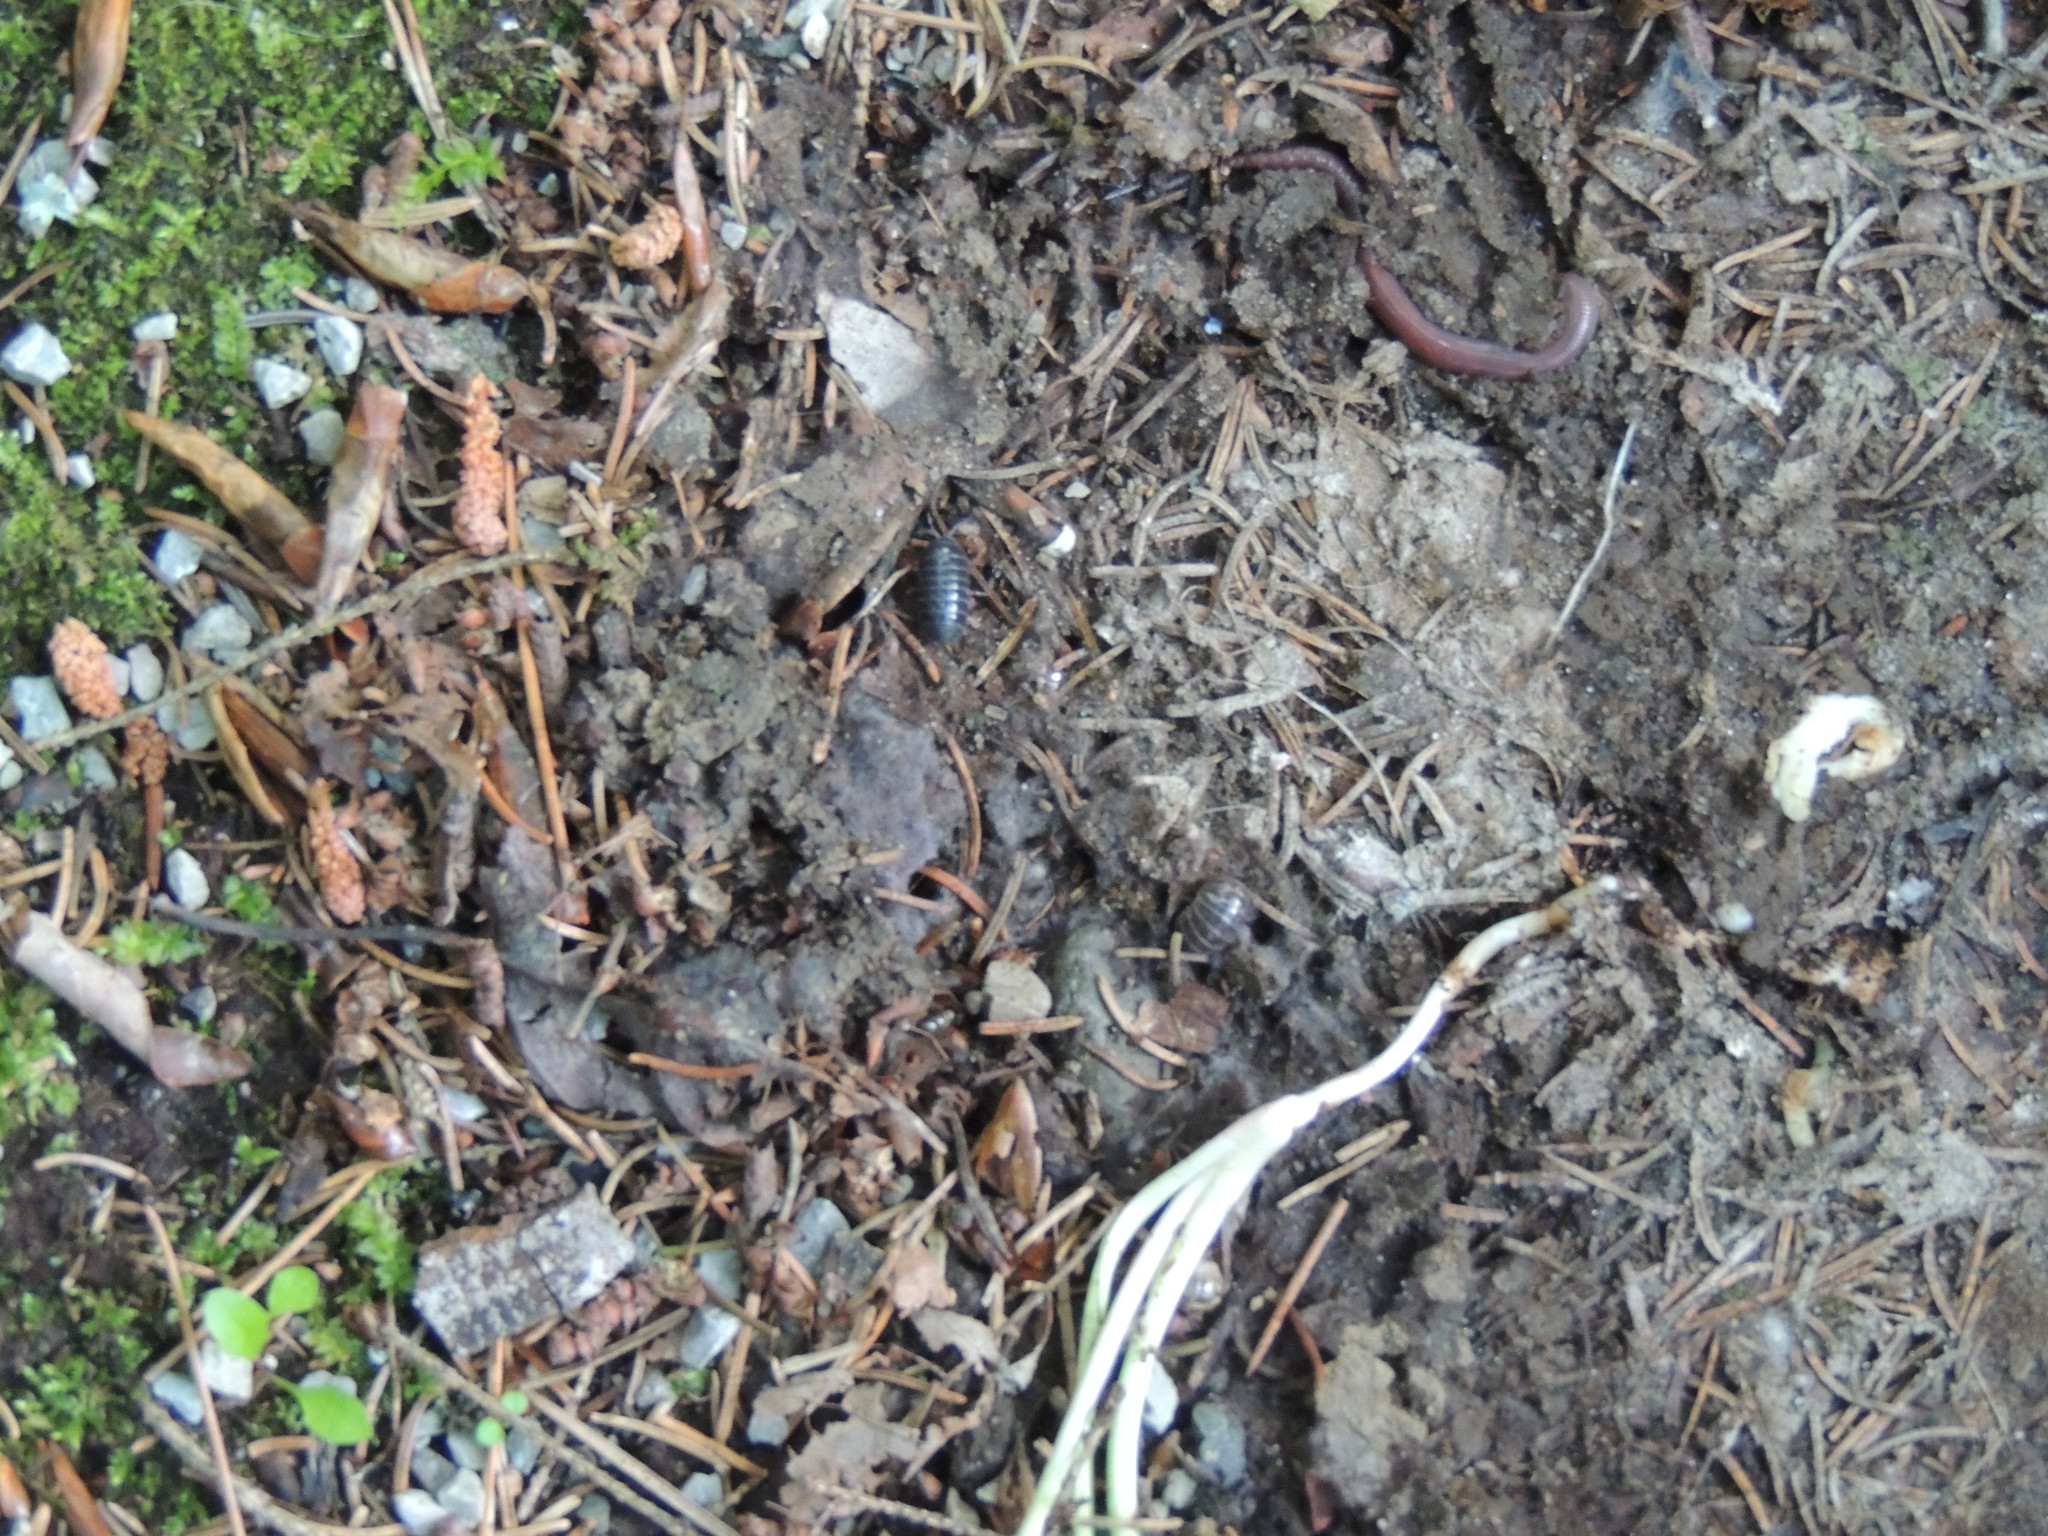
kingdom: Animalia
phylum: Arthropoda
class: Malacostraca
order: Isopoda
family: Armadillidiidae
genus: Armadillidium
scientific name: Armadillidium vulgare
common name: Common pill woodlouse
